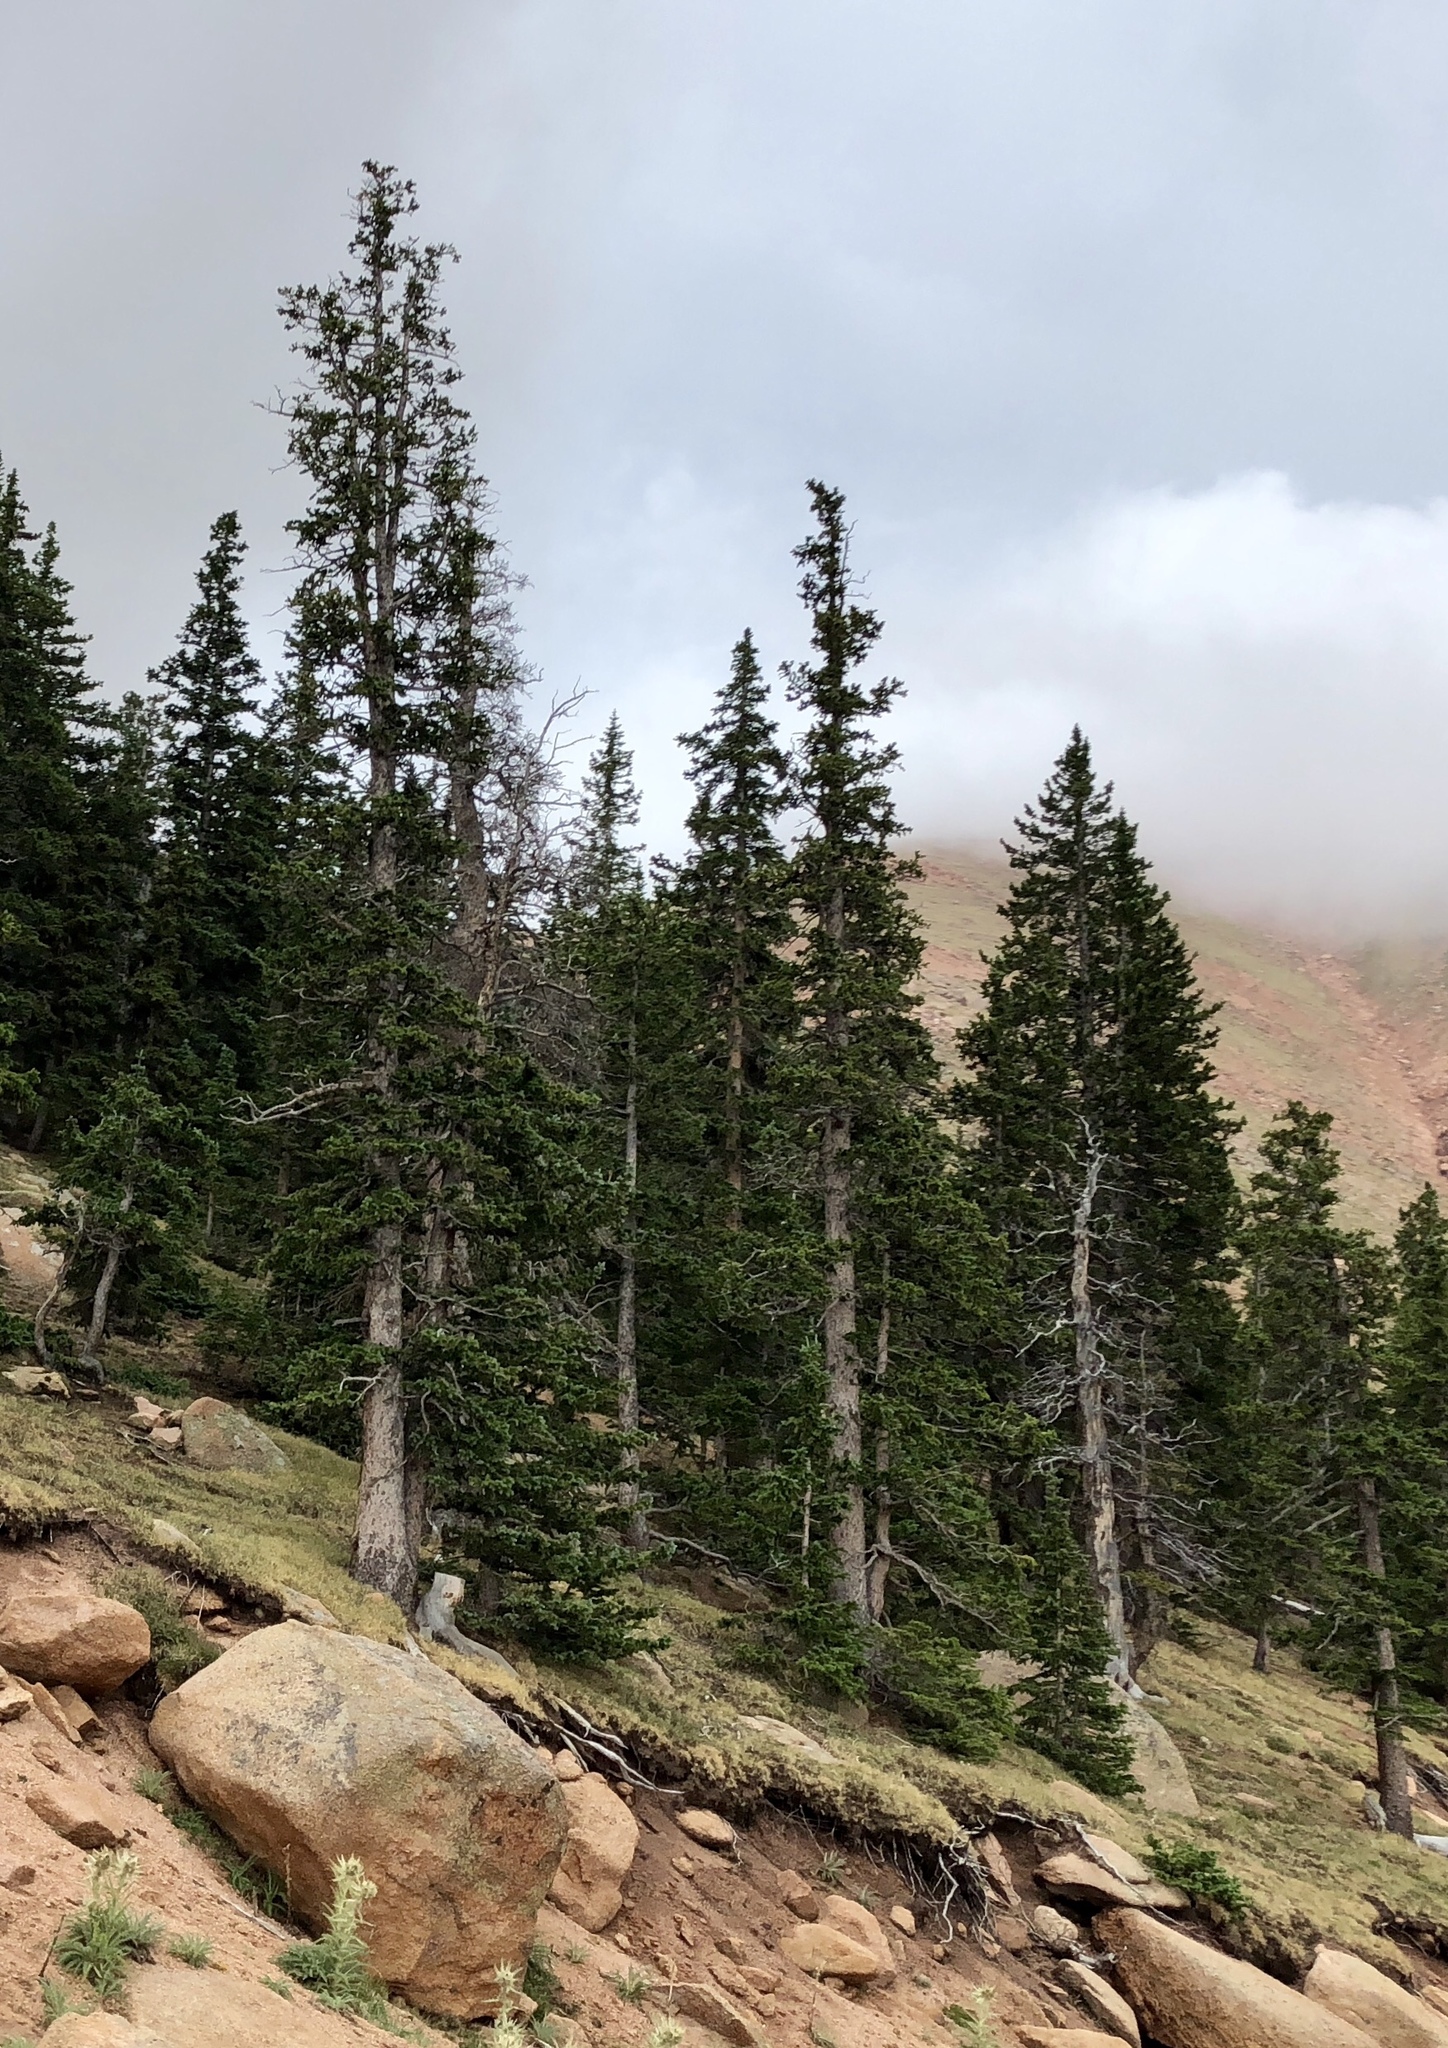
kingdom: Plantae
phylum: Tracheophyta
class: Pinopsida
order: Pinales
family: Pinaceae
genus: Picea
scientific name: Picea engelmannii
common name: Engelmann spruce
